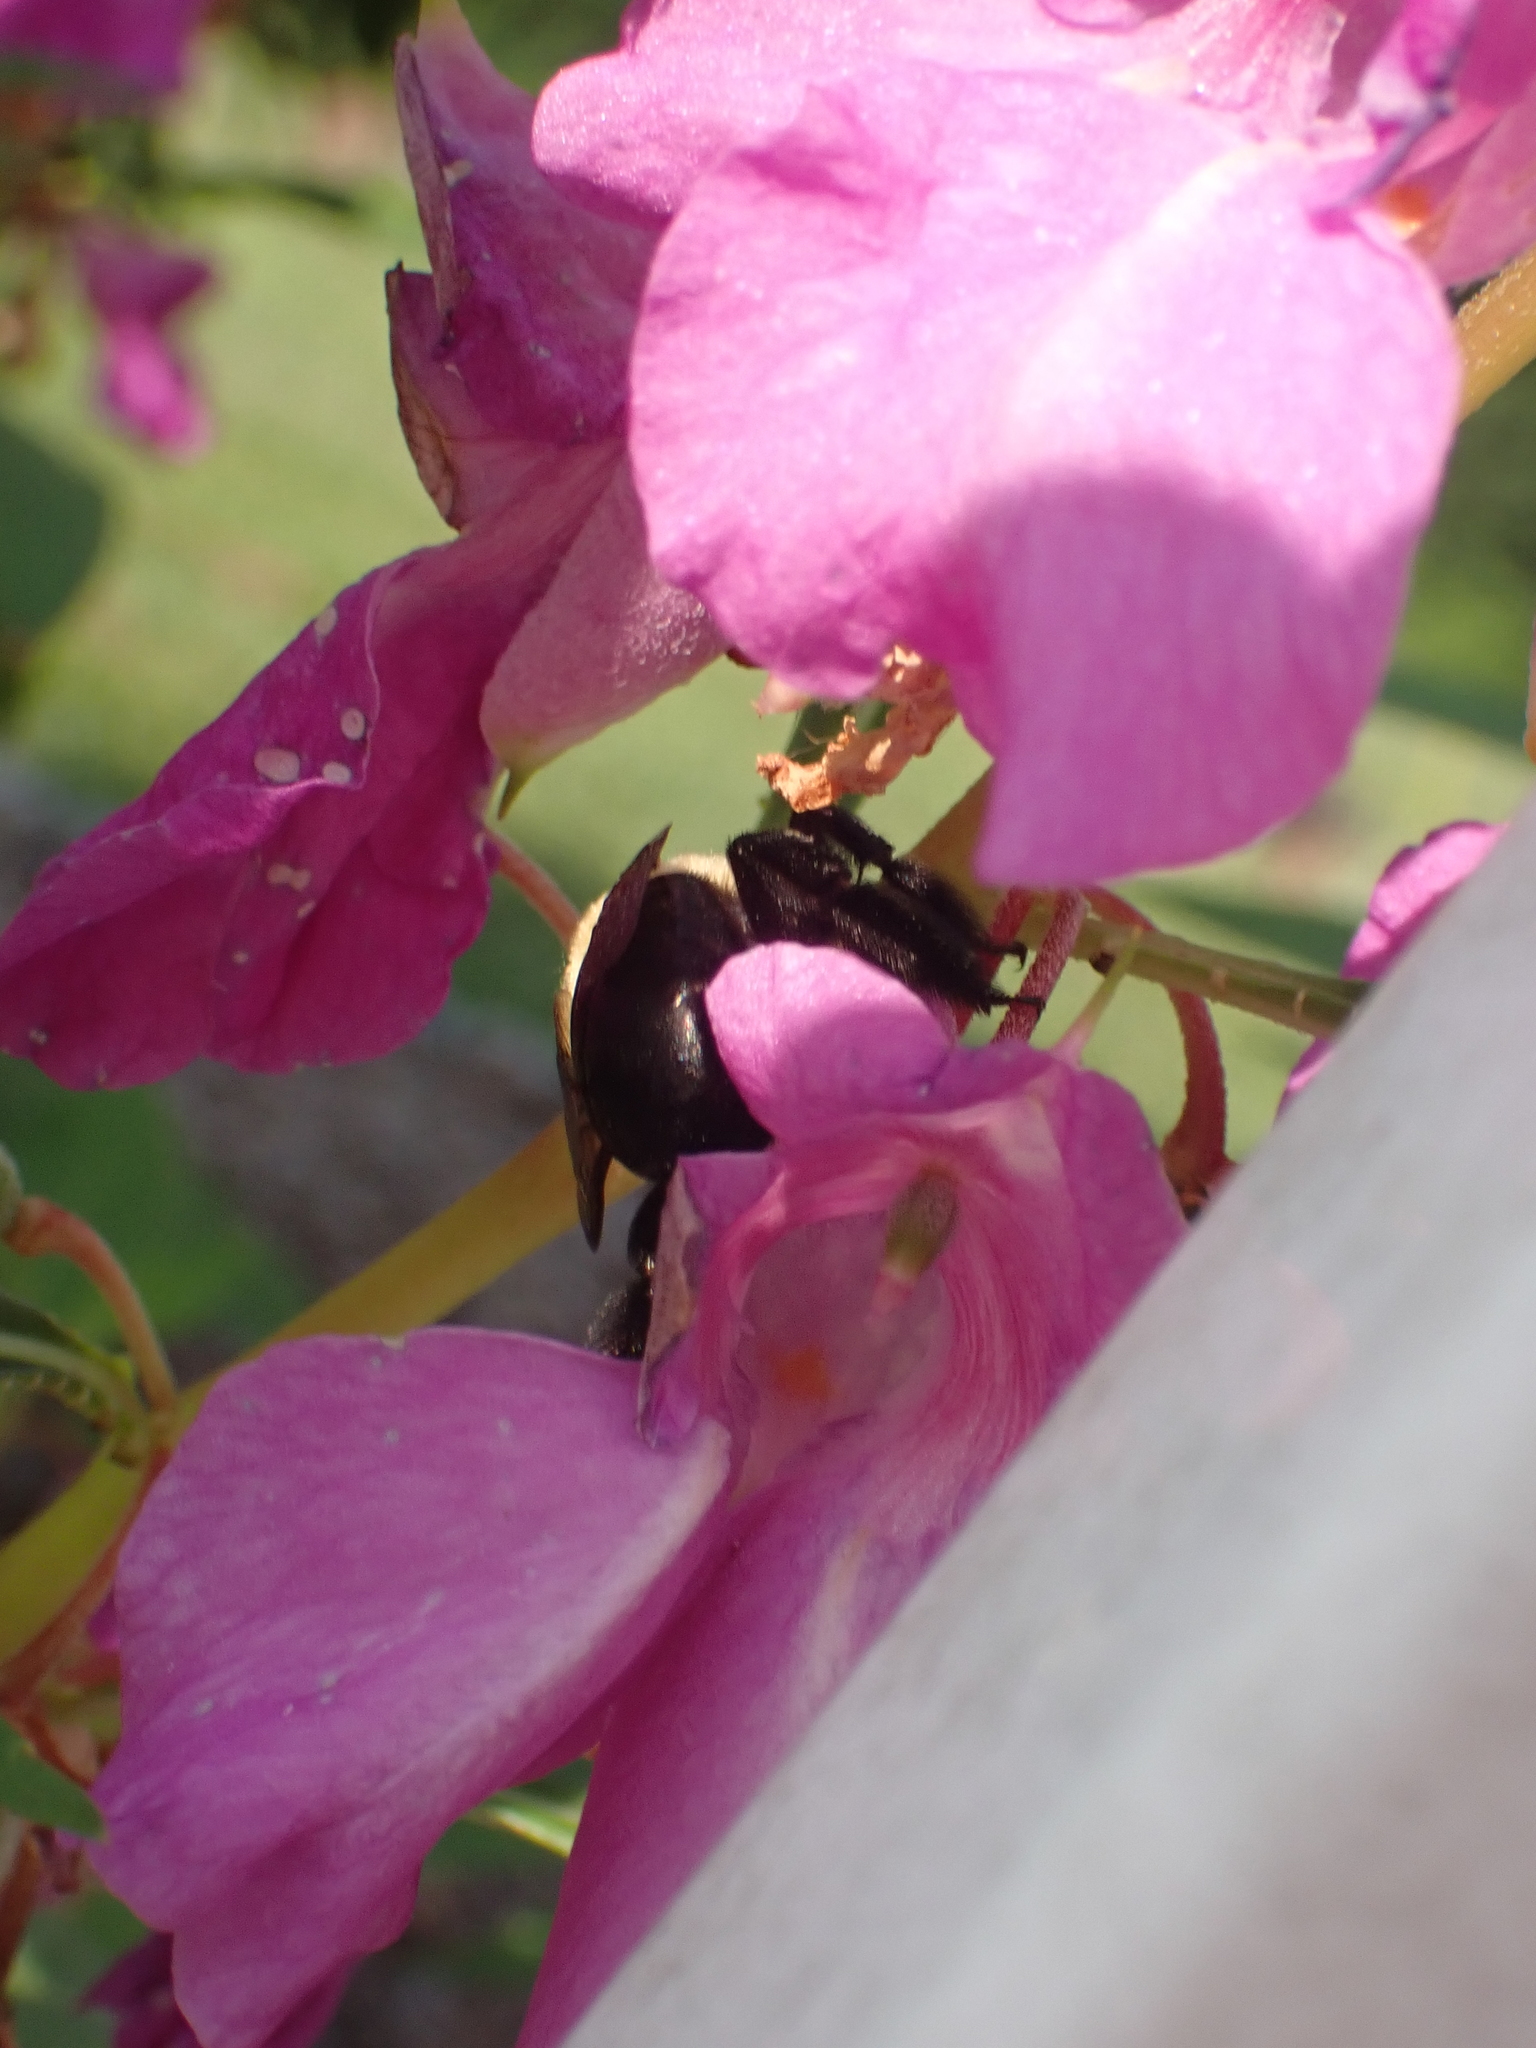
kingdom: Animalia
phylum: Arthropoda
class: Insecta
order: Hymenoptera
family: Apidae
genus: Xylocopa
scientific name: Xylocopa virginica
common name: Carpenter bee
